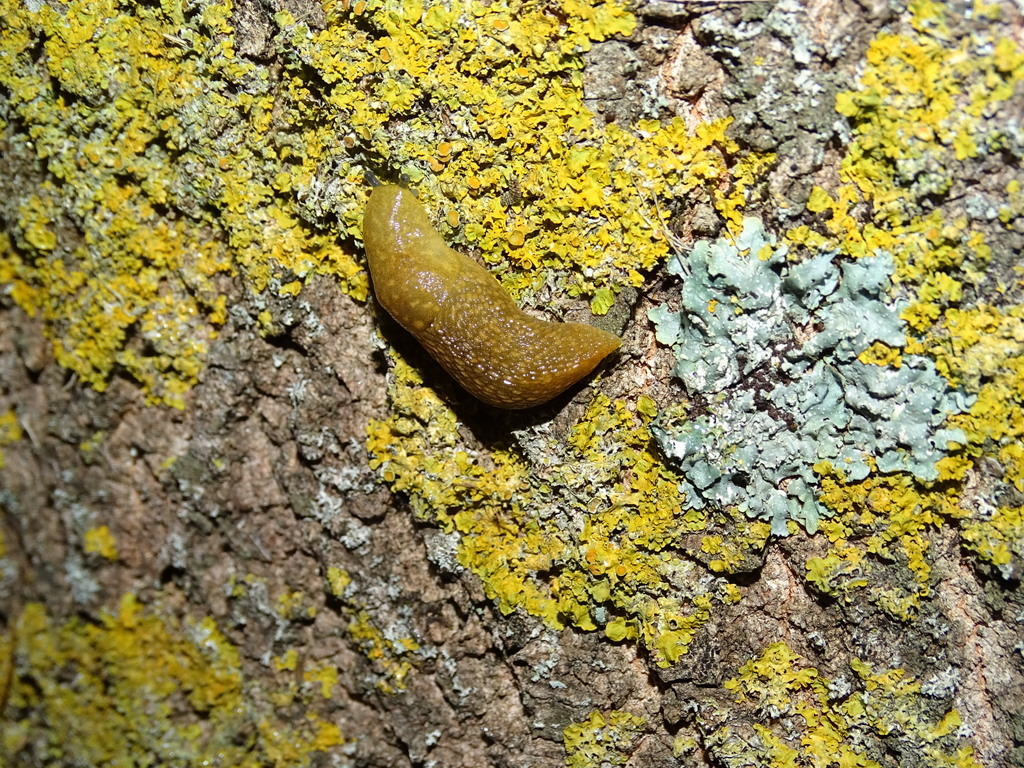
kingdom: Animalia
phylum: Mollusca
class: Gastropoda
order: Stylommatophora
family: Limacidae
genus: Limacus
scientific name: Limacus flavus
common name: Yellow gardenslug
